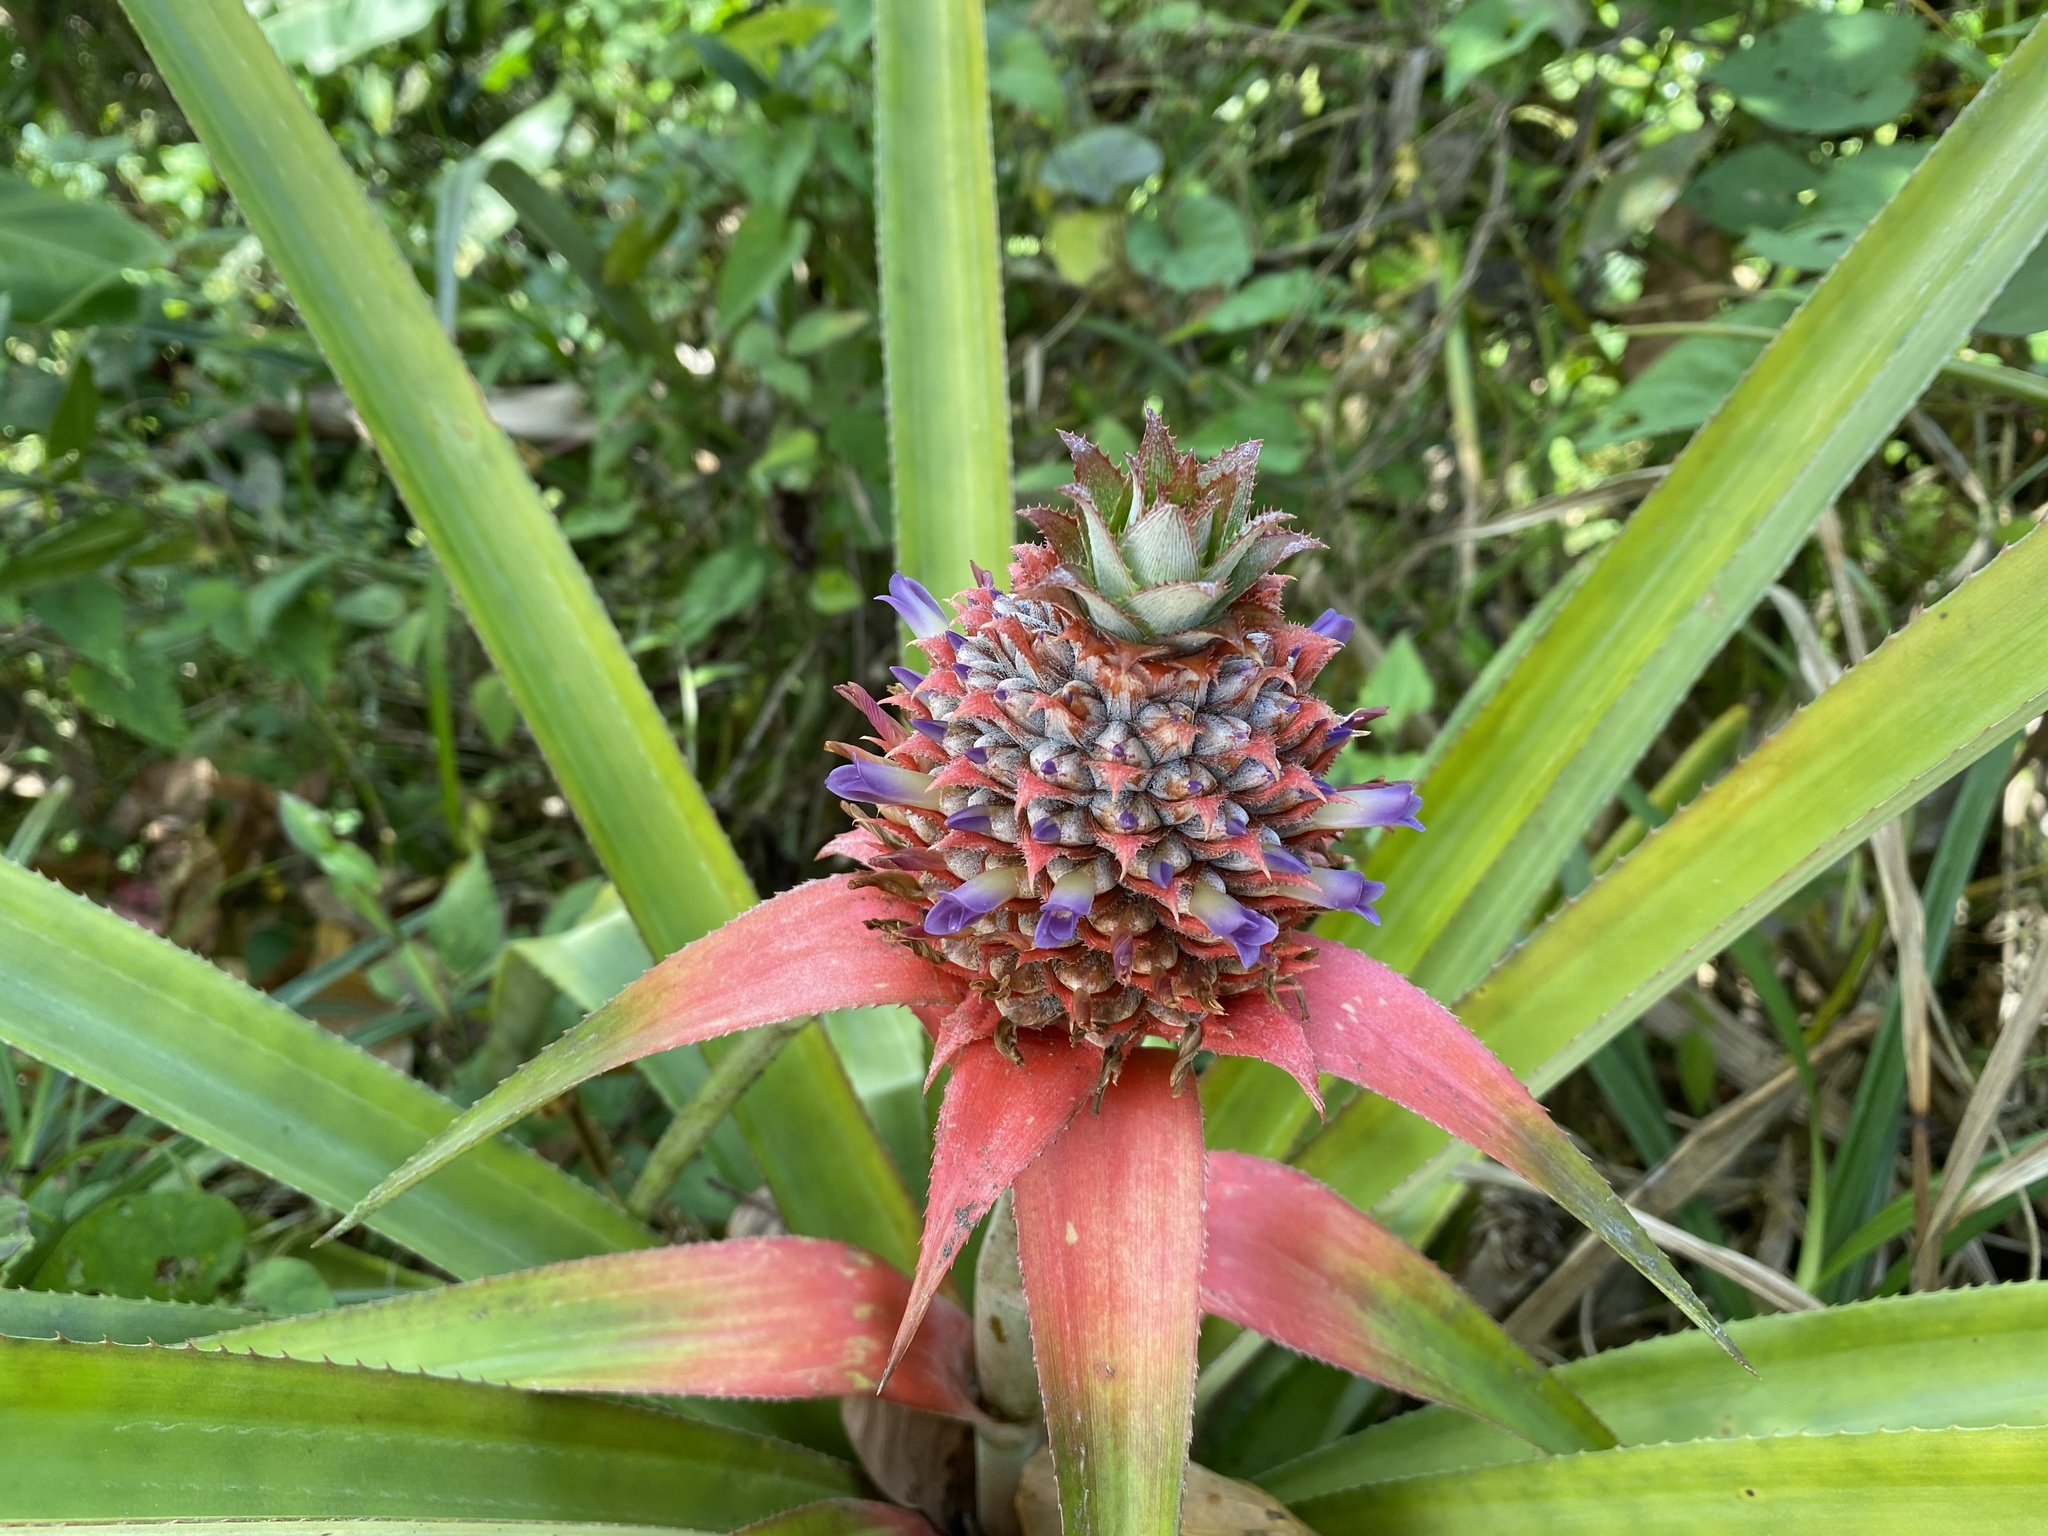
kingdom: Plantae
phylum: Tracheophyta
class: Liliopsida
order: Poales
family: Bromeliaceae
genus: Ananas
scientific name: Ananas comosus
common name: Pineapple
